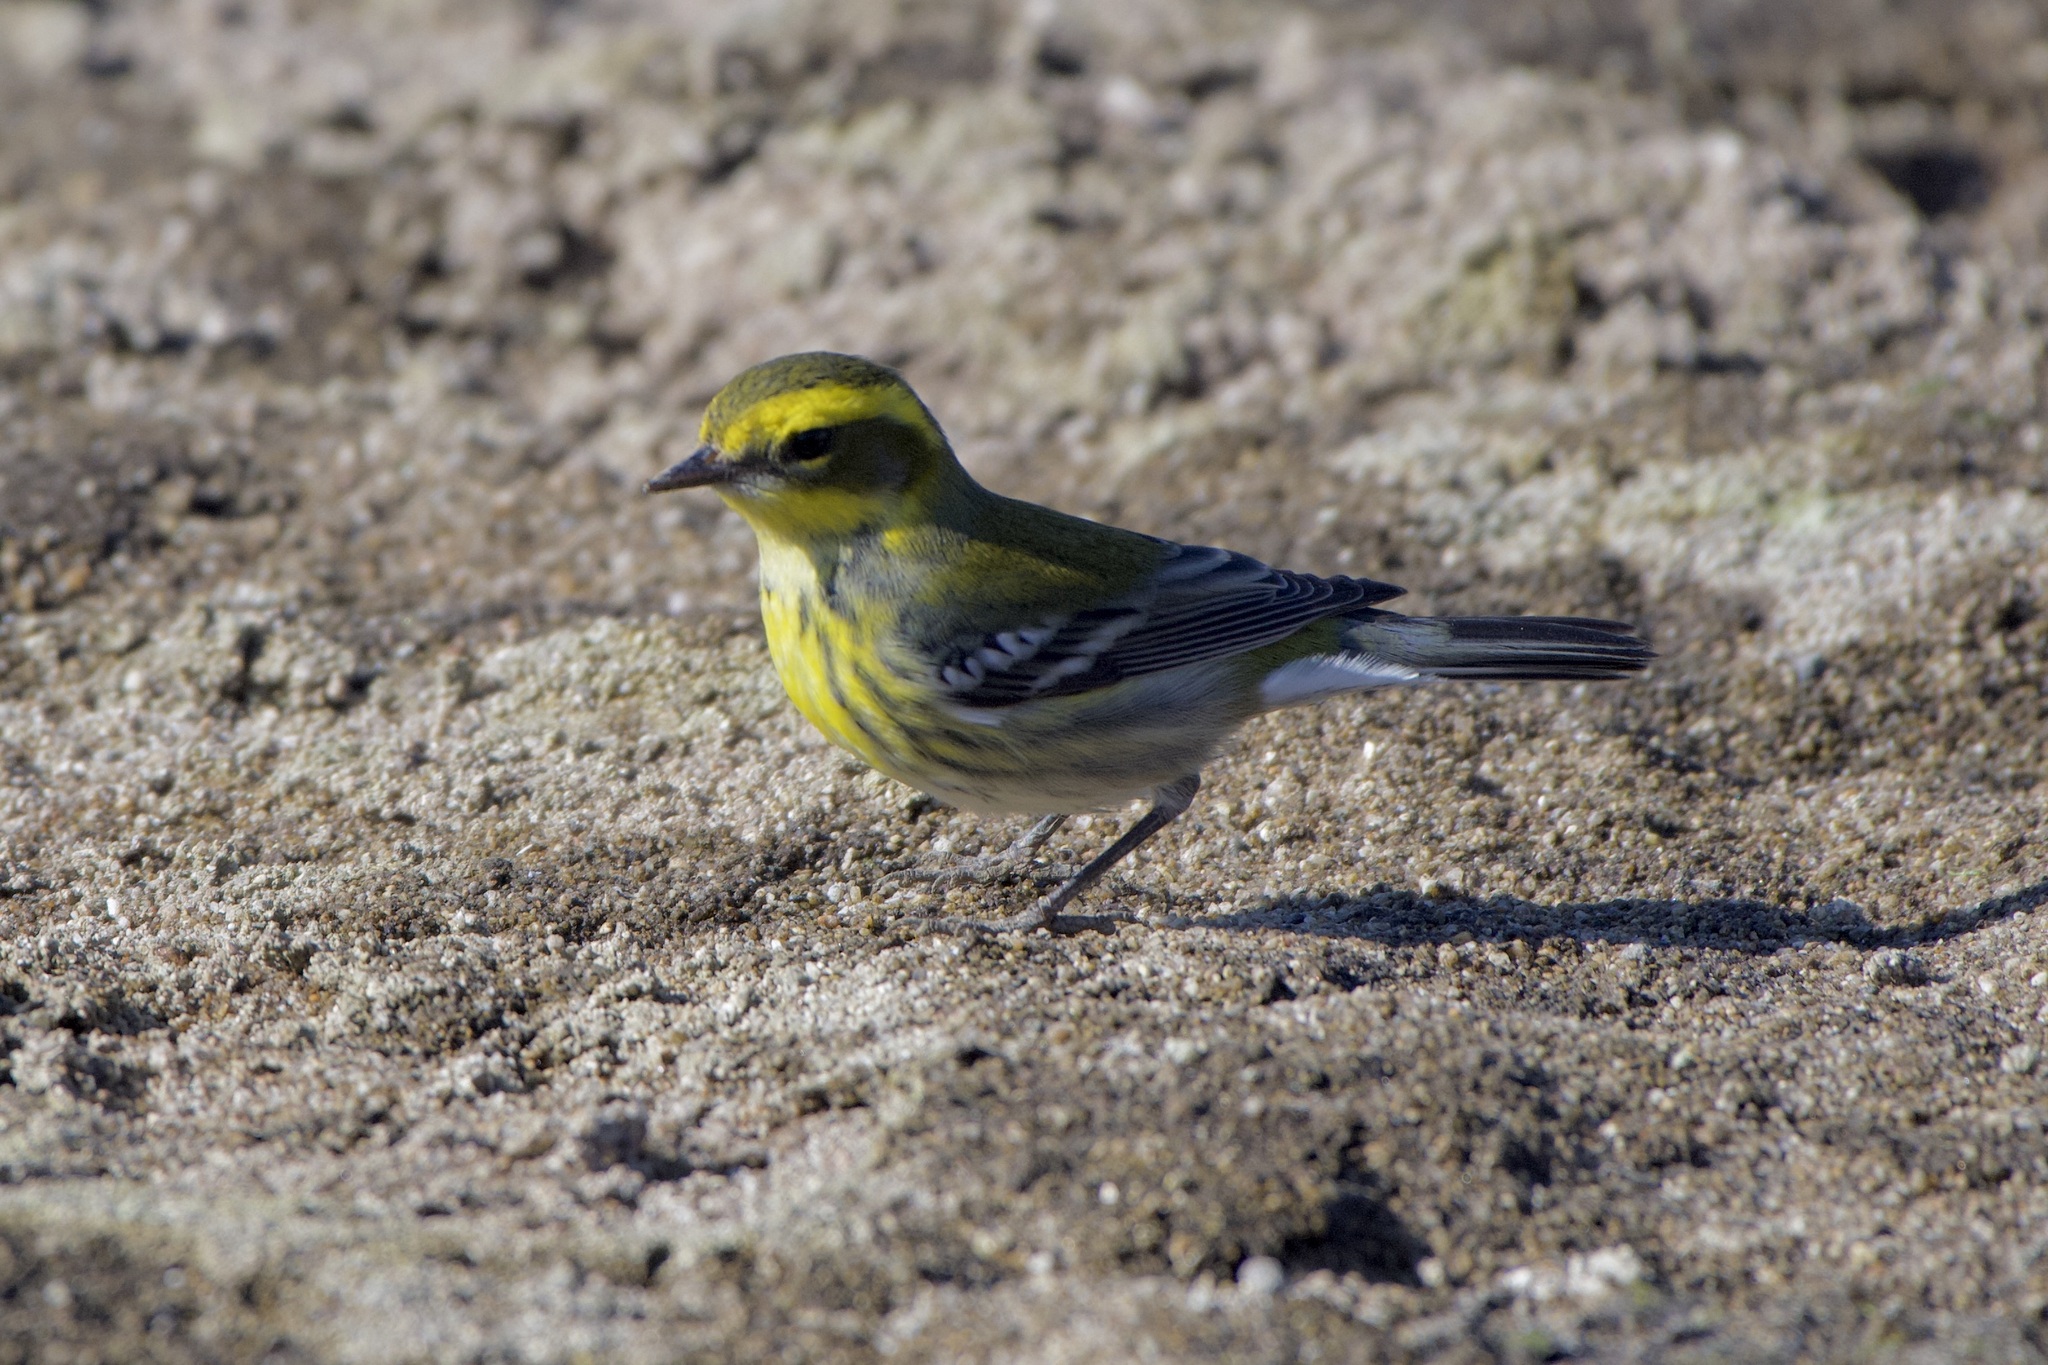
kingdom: Animalia
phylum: Chordata
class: Aves
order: Passeriformes
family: Parulidae
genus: Setophaga
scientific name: Setophaga townsendi
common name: Townsend's warbler
